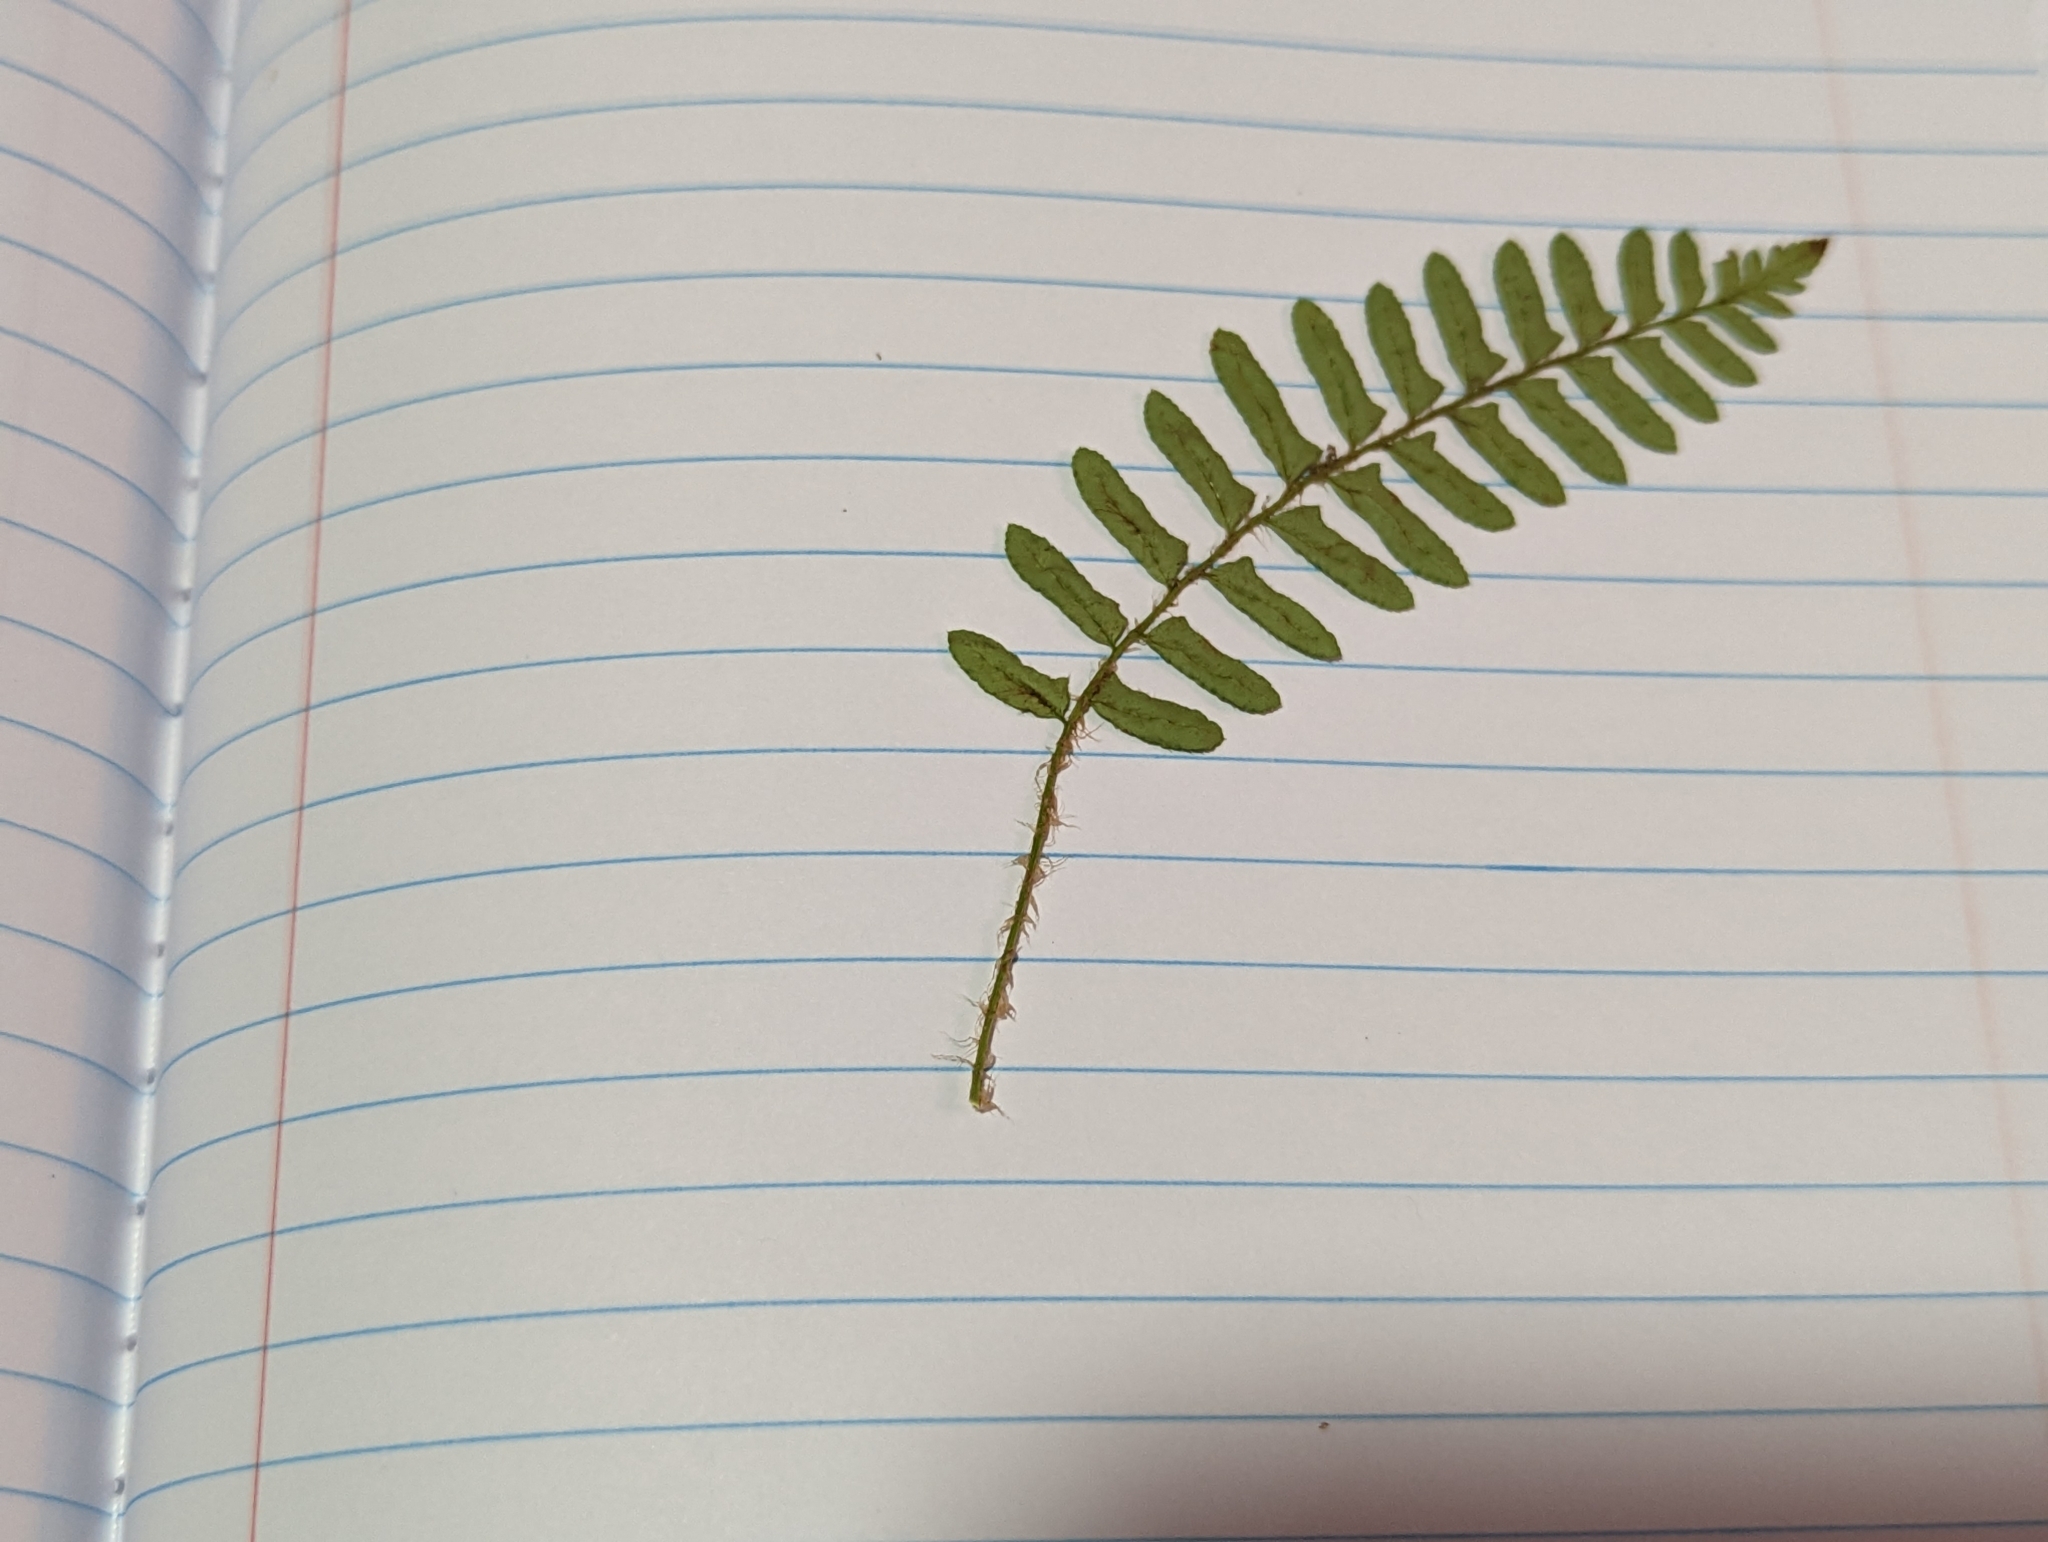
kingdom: Plantae
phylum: Tracheophyta
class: Polypodiopsida
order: Polypodiales
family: Dryopteridaceae
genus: Polystichum
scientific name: Polystichum acrostichoides
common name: Christmas fern
